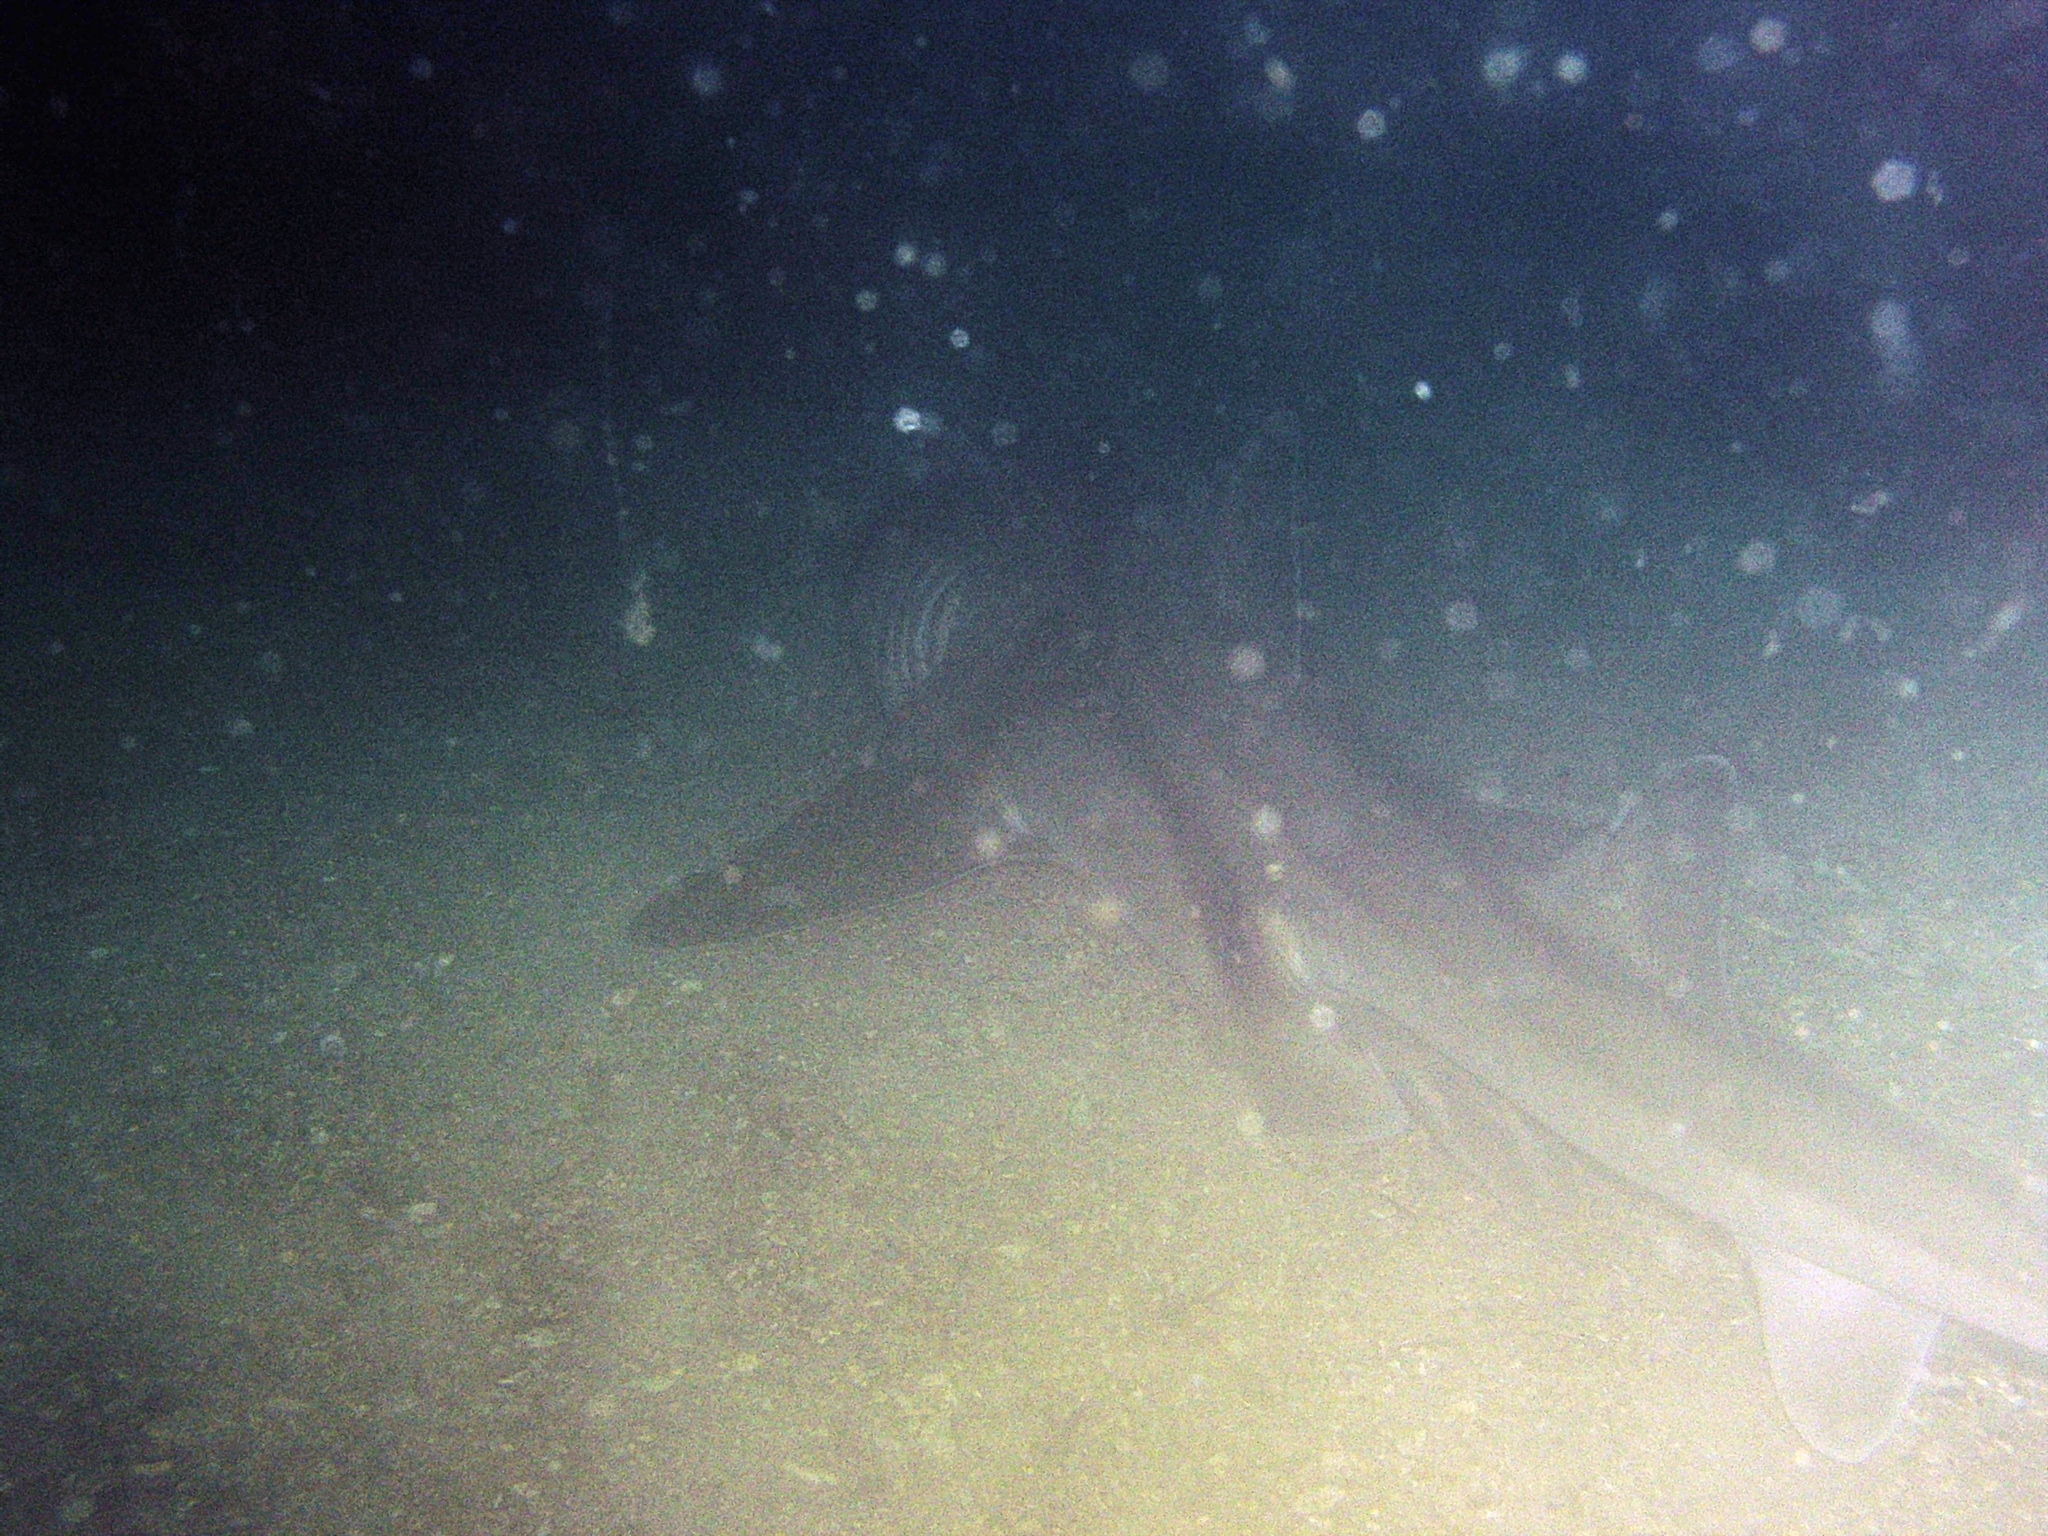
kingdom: Animalia
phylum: Chordata
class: Elasmobranchii
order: Heterodontiformes
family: Heterodontidae
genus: Heterodontus
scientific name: Heterodontus portusjacksoni
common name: Port jackson shark
